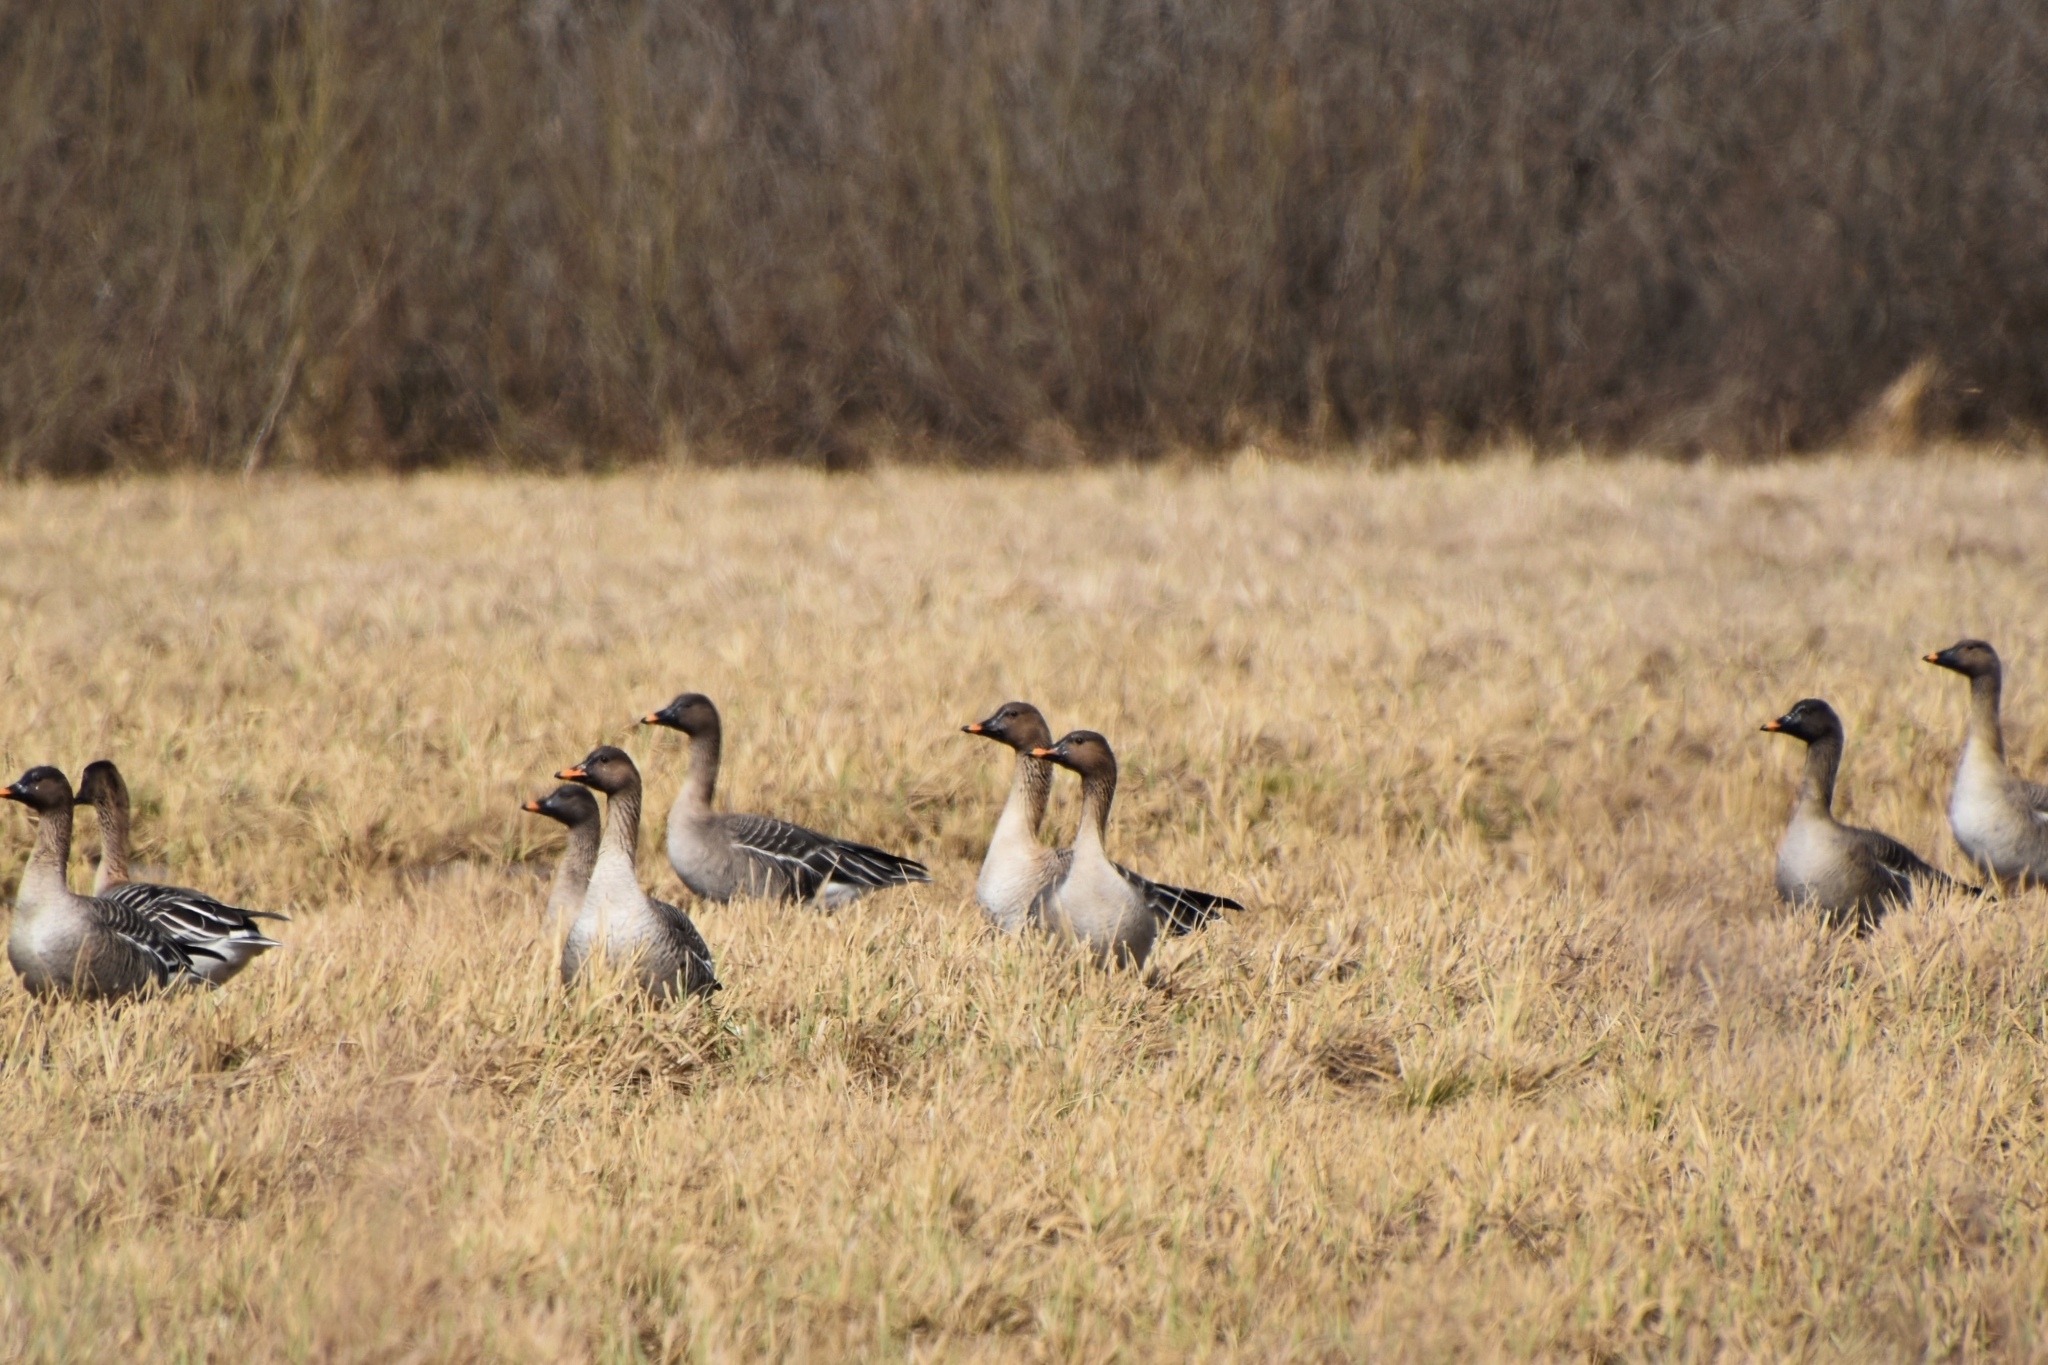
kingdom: Animalia
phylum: Chordata
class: Aves
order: Anseriformes
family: Anatidae
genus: Anser
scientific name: Anser fabalis
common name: Bean goose
